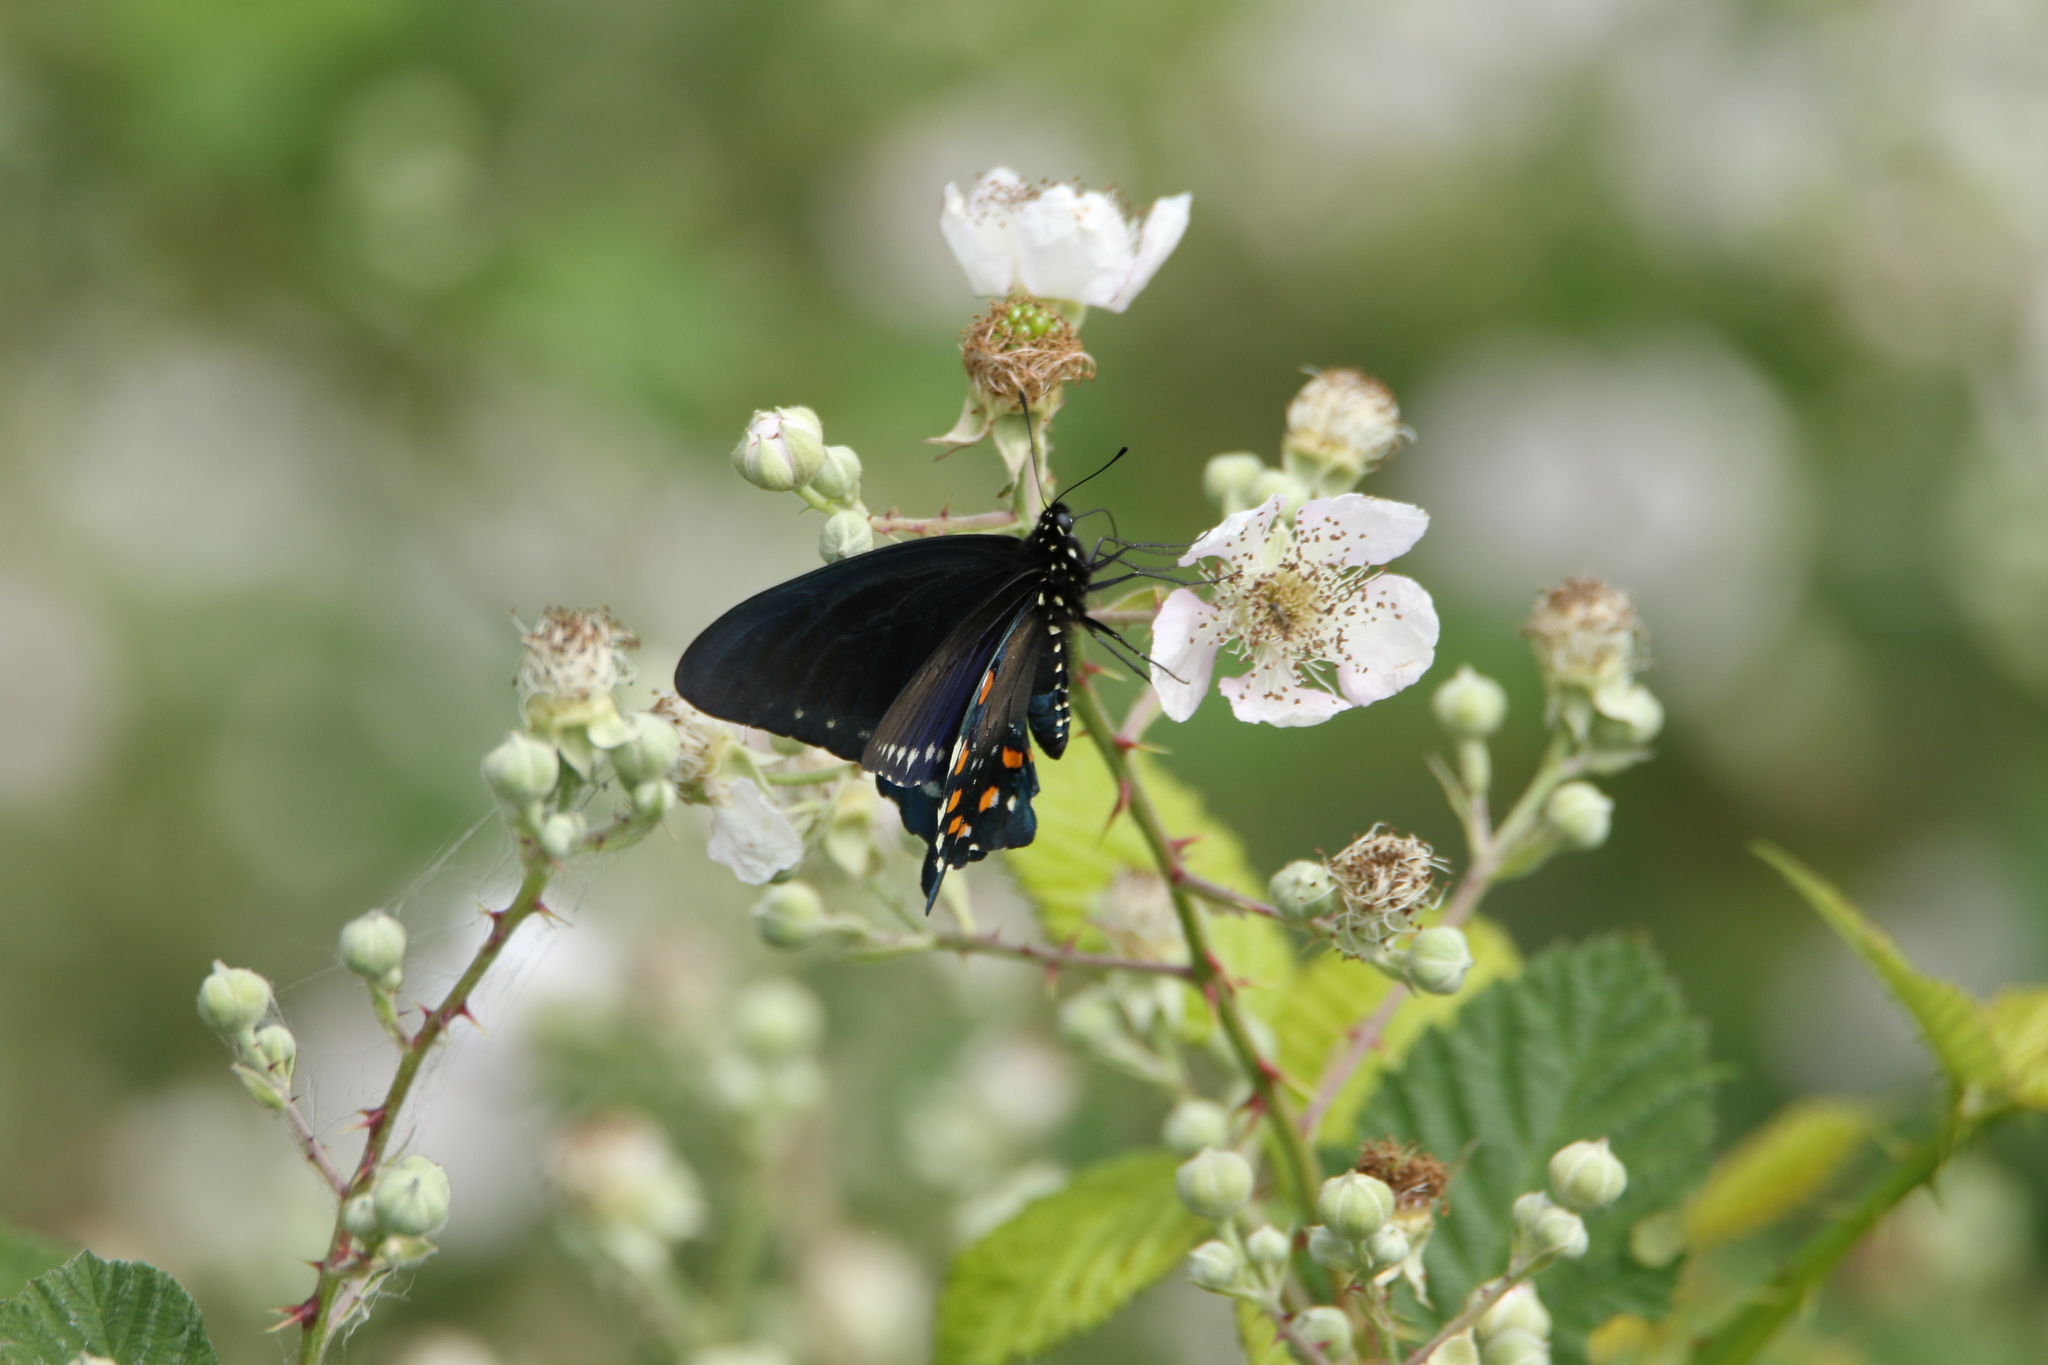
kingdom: Animalia
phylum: Arthropoda
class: Insecta
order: Lepidoptera
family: Papilionidae
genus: Battus
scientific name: Battus philenor
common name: Pipevine swallowtail
